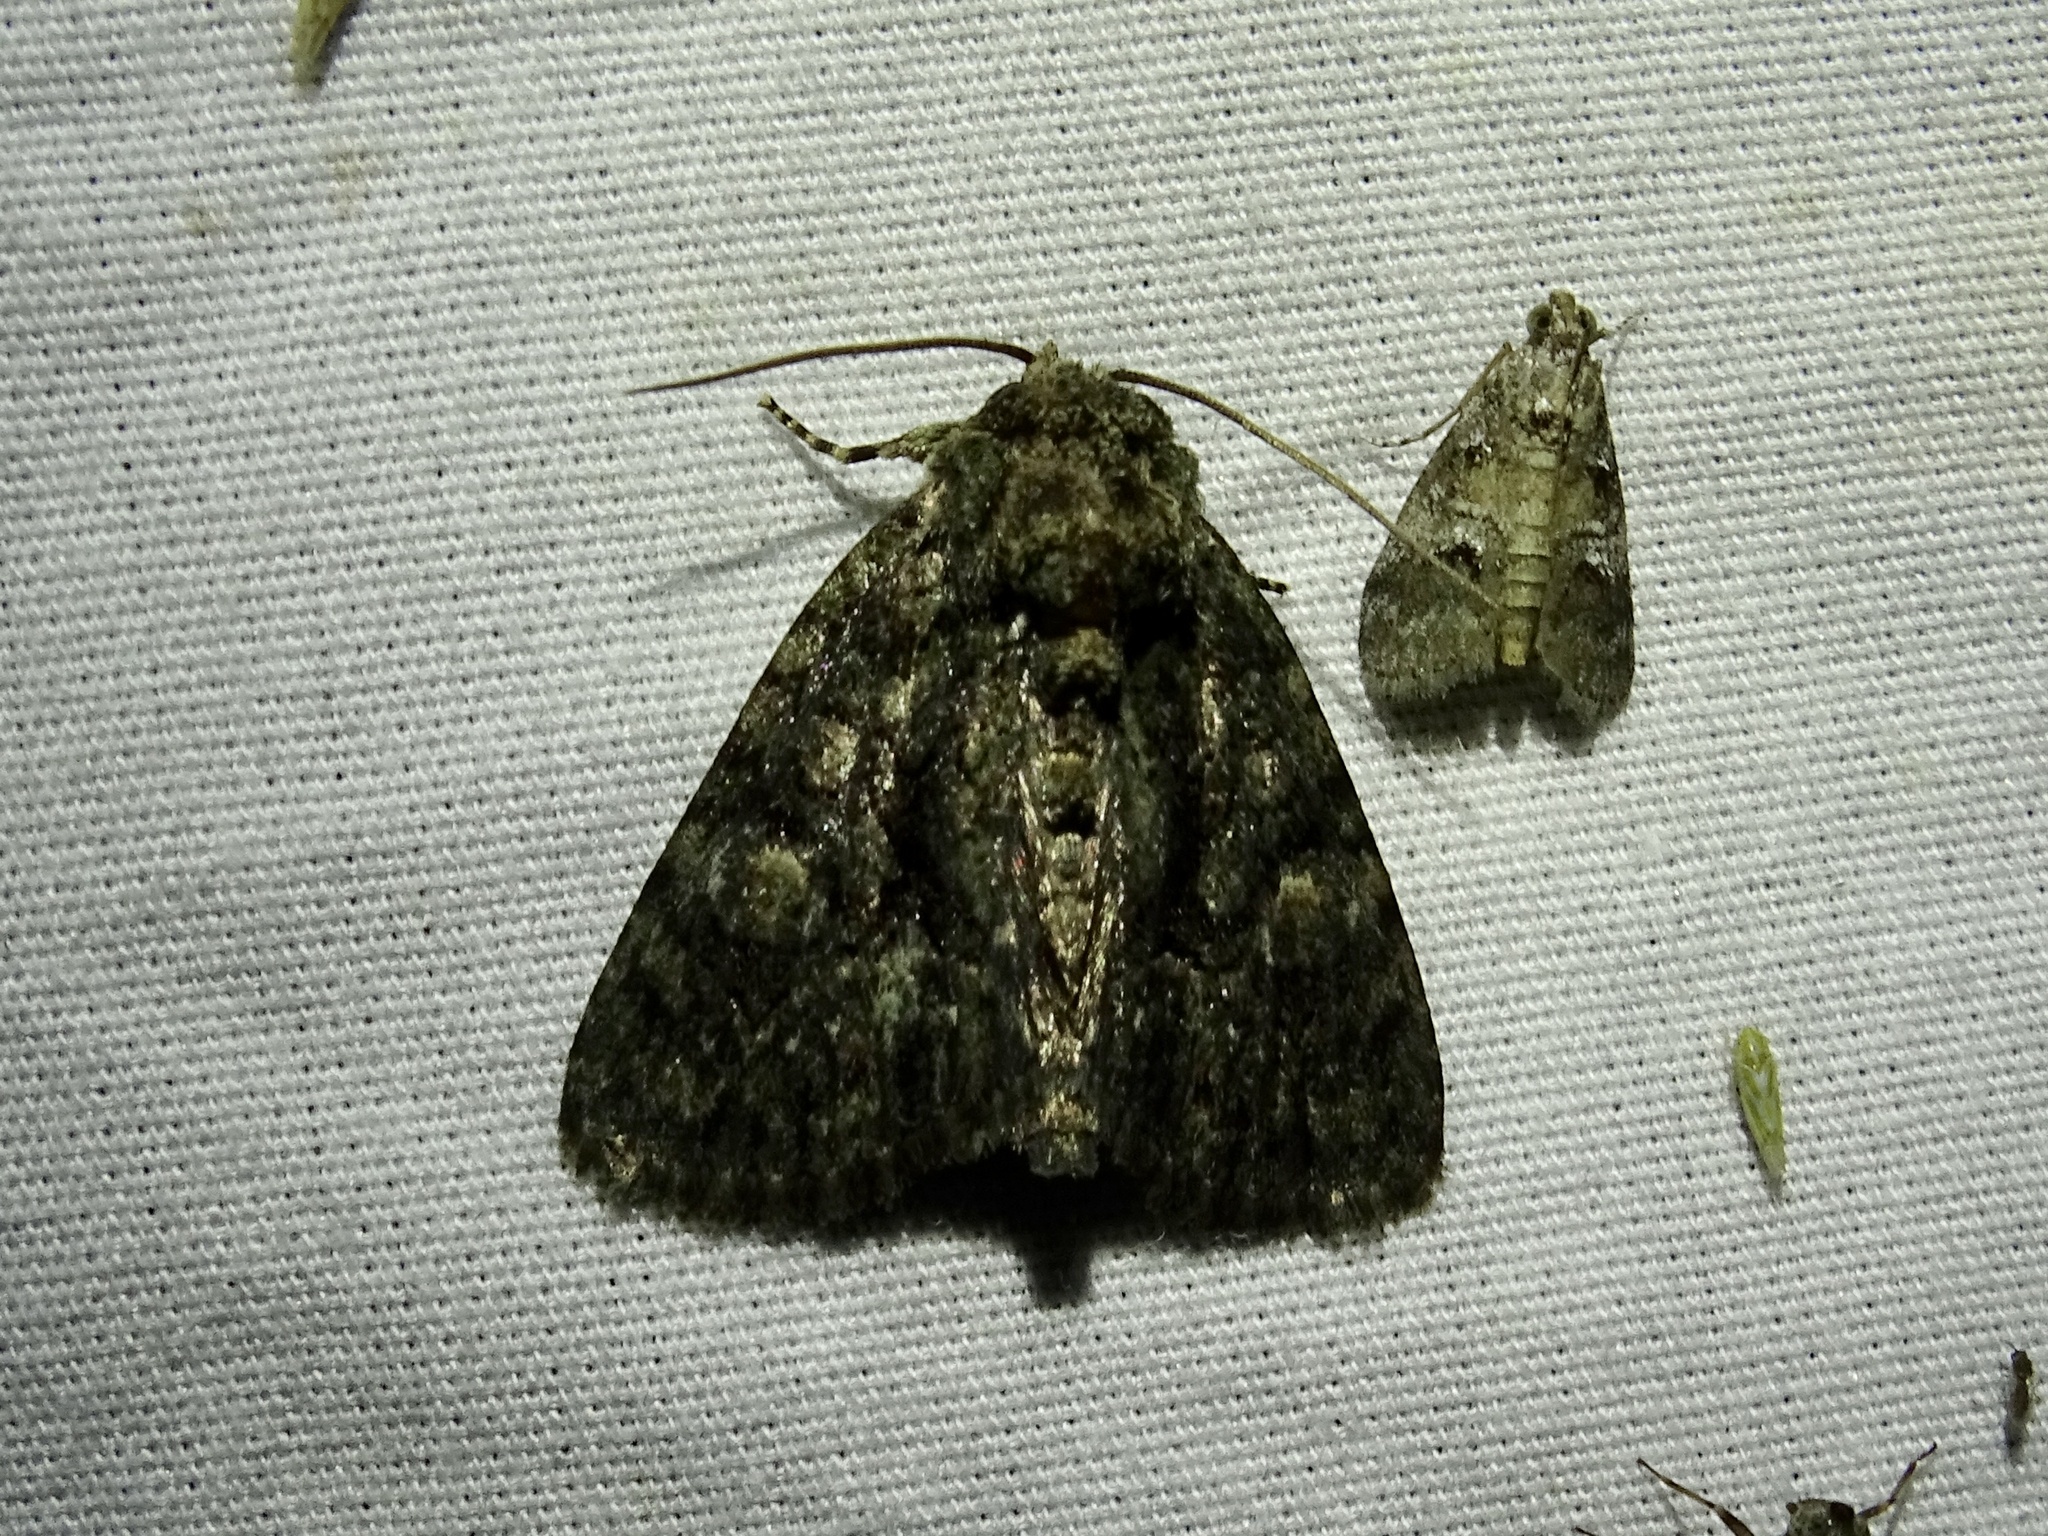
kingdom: Animalia
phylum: Arthropoda
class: Insecta
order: Lepidoptera
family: Noctuidae
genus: Phosphila
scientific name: Phosphila miselioides
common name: Spotted phosphila moth
